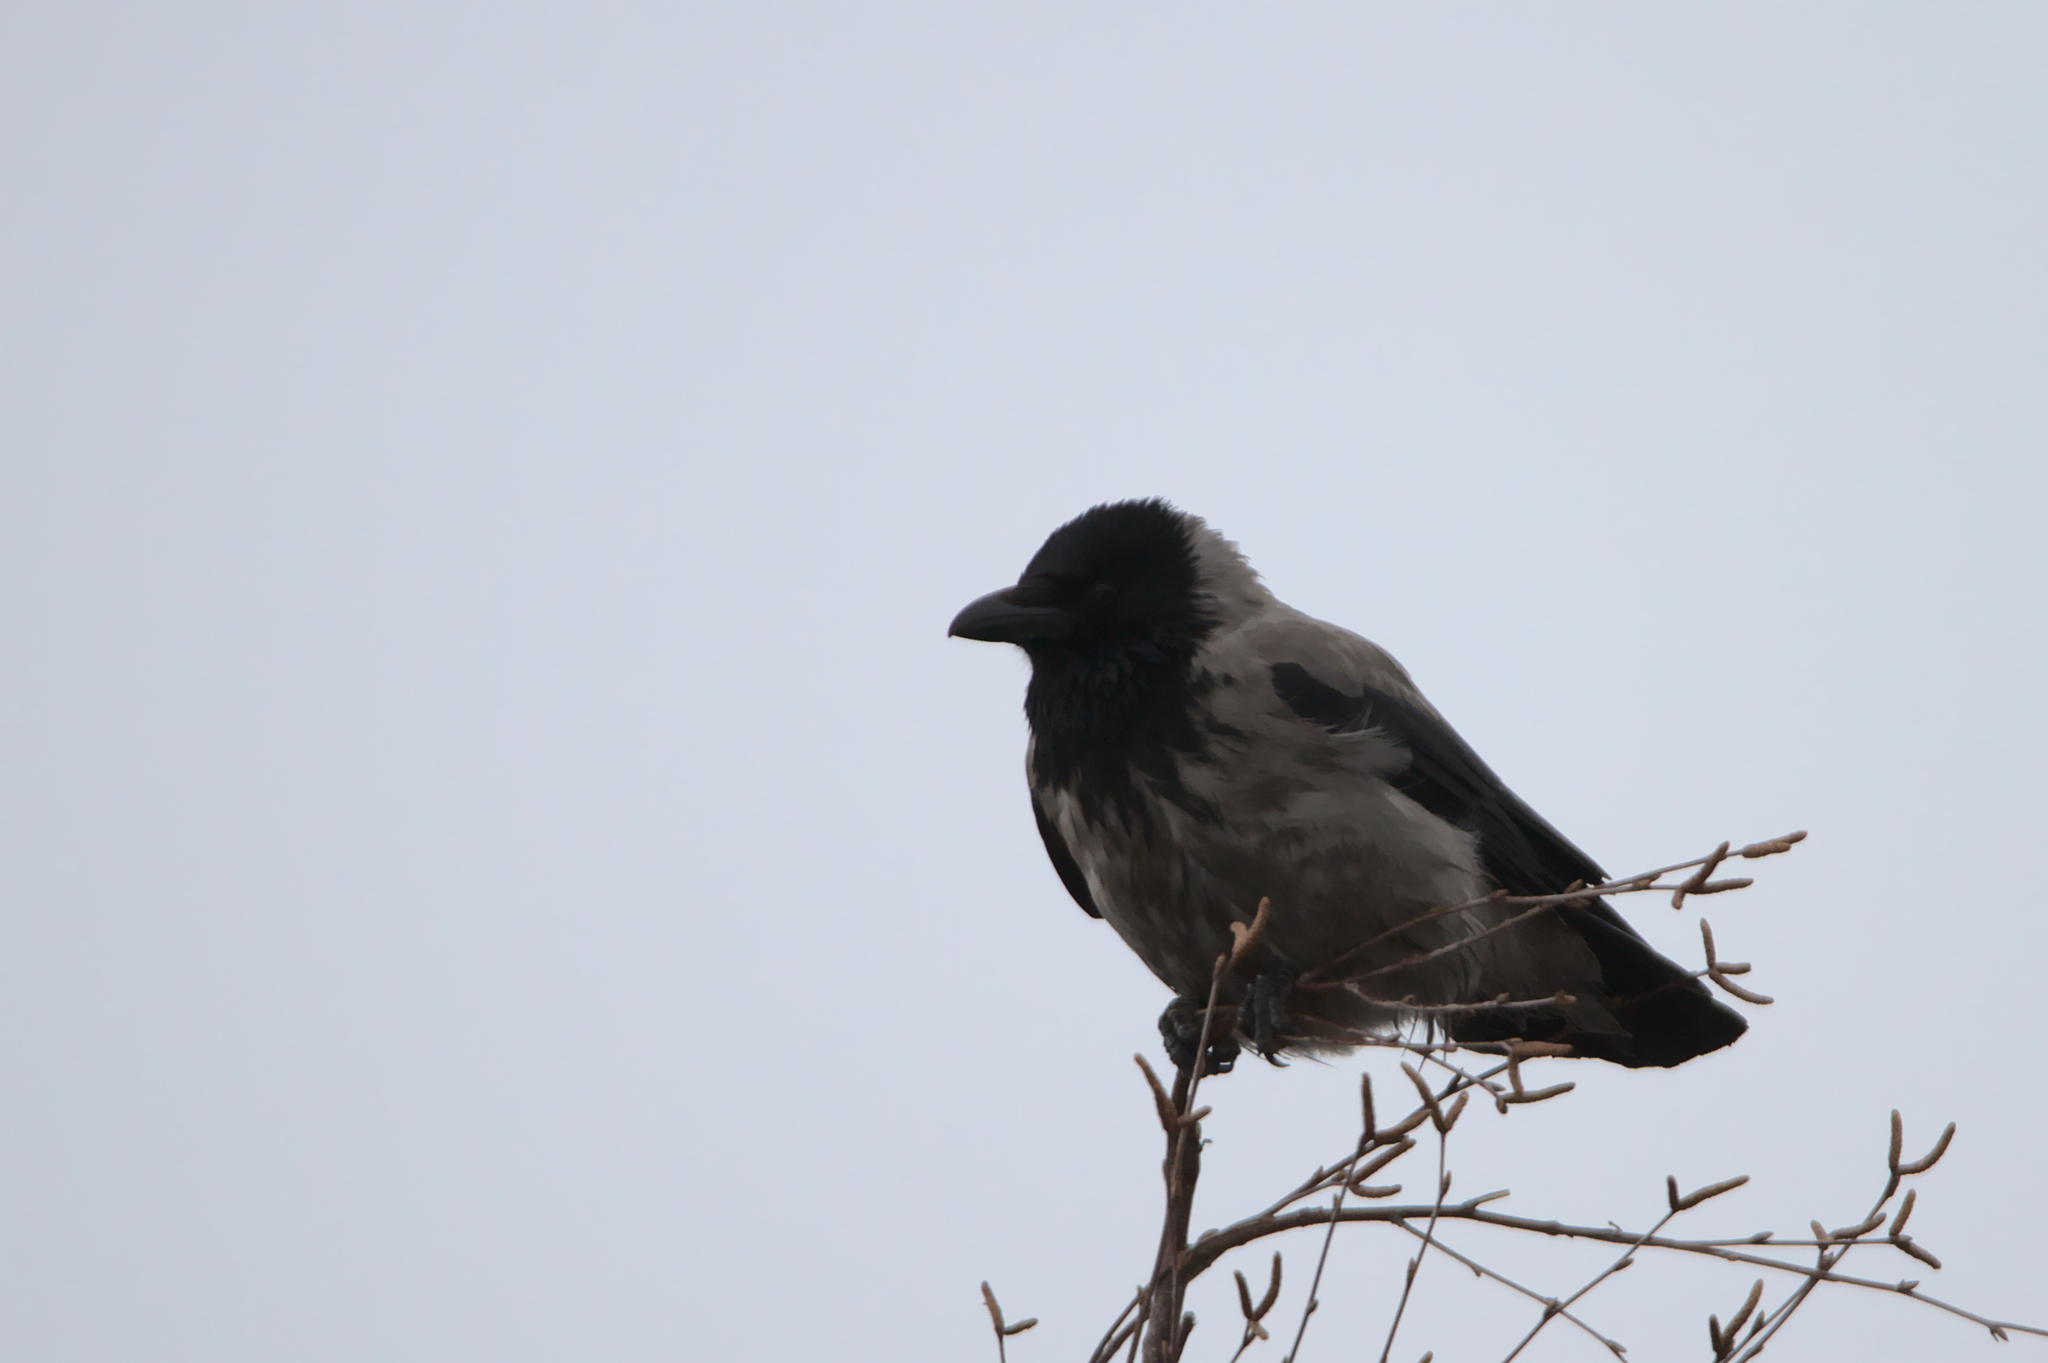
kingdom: Animalia
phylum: Chordata
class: Aves
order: Passeriformes
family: Corvidae
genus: Corvus
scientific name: Corvus cornix
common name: Hooded crow
